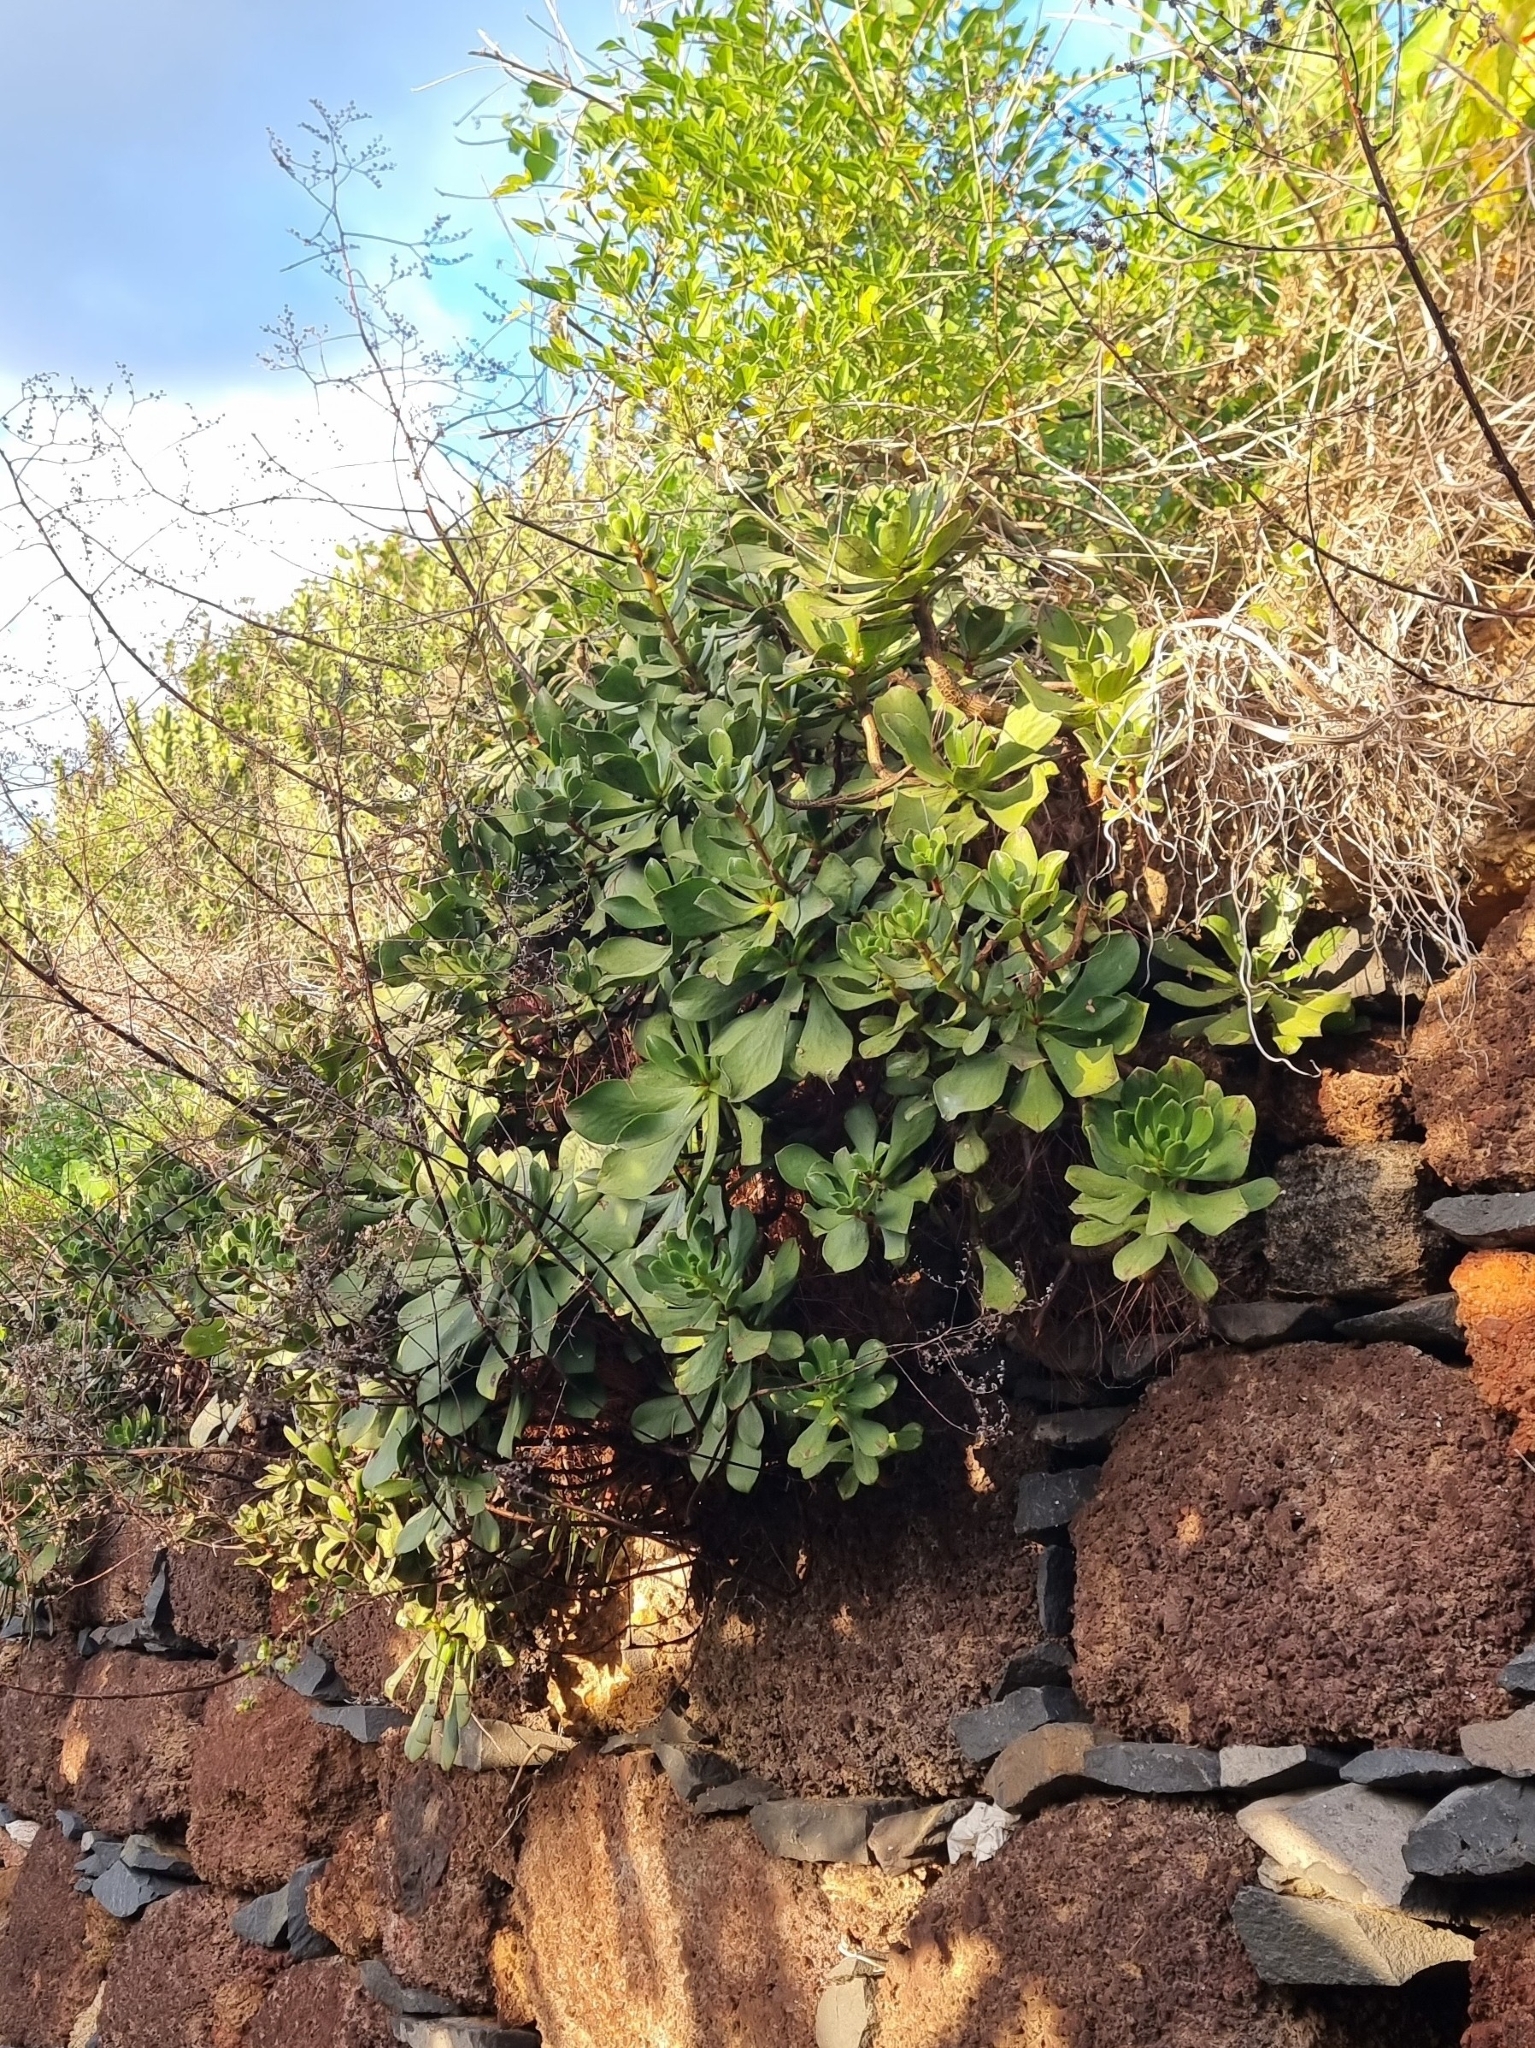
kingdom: Plantae
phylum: Tracheophyta
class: Magnoliopsida
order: Saxifragales
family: Crassulaceae
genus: Aeonium
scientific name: Aeonium glutinosum
